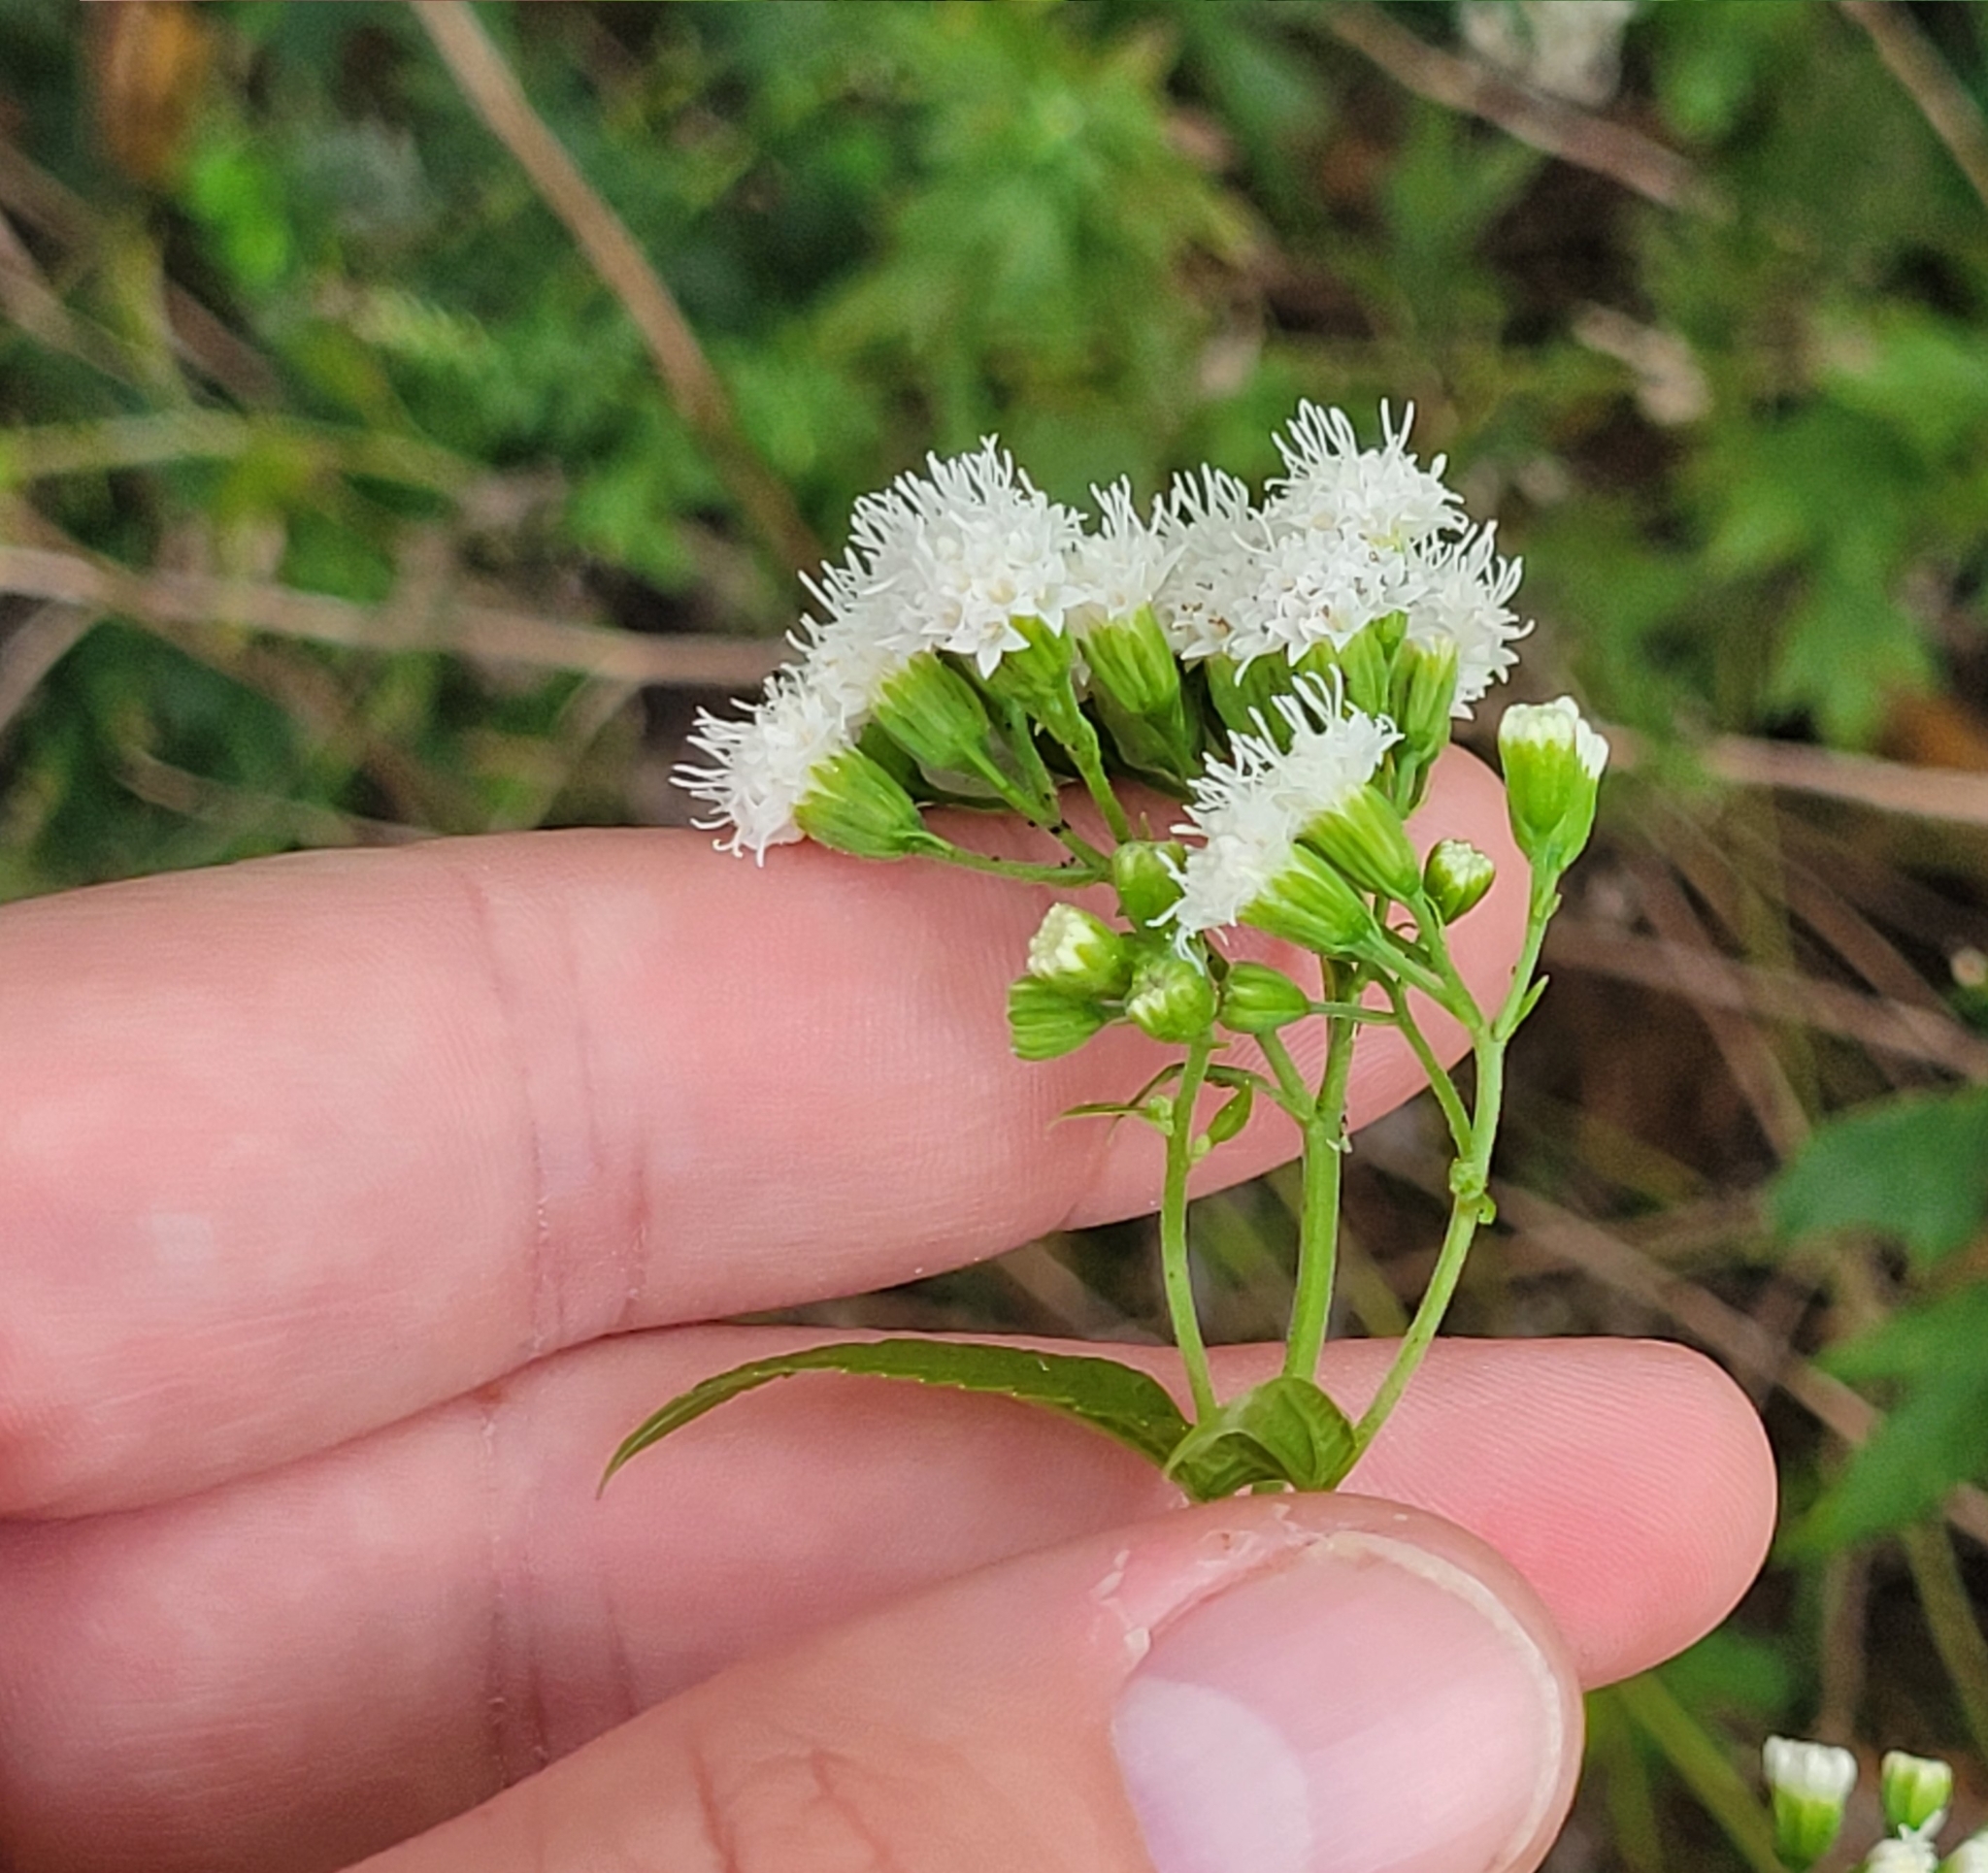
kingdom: Plantae
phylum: Tracheophyta
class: Magnoliopsida
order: Asterales
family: Asteraceae
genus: Ageratina
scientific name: Ageratina altissima
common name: White snakeroot
